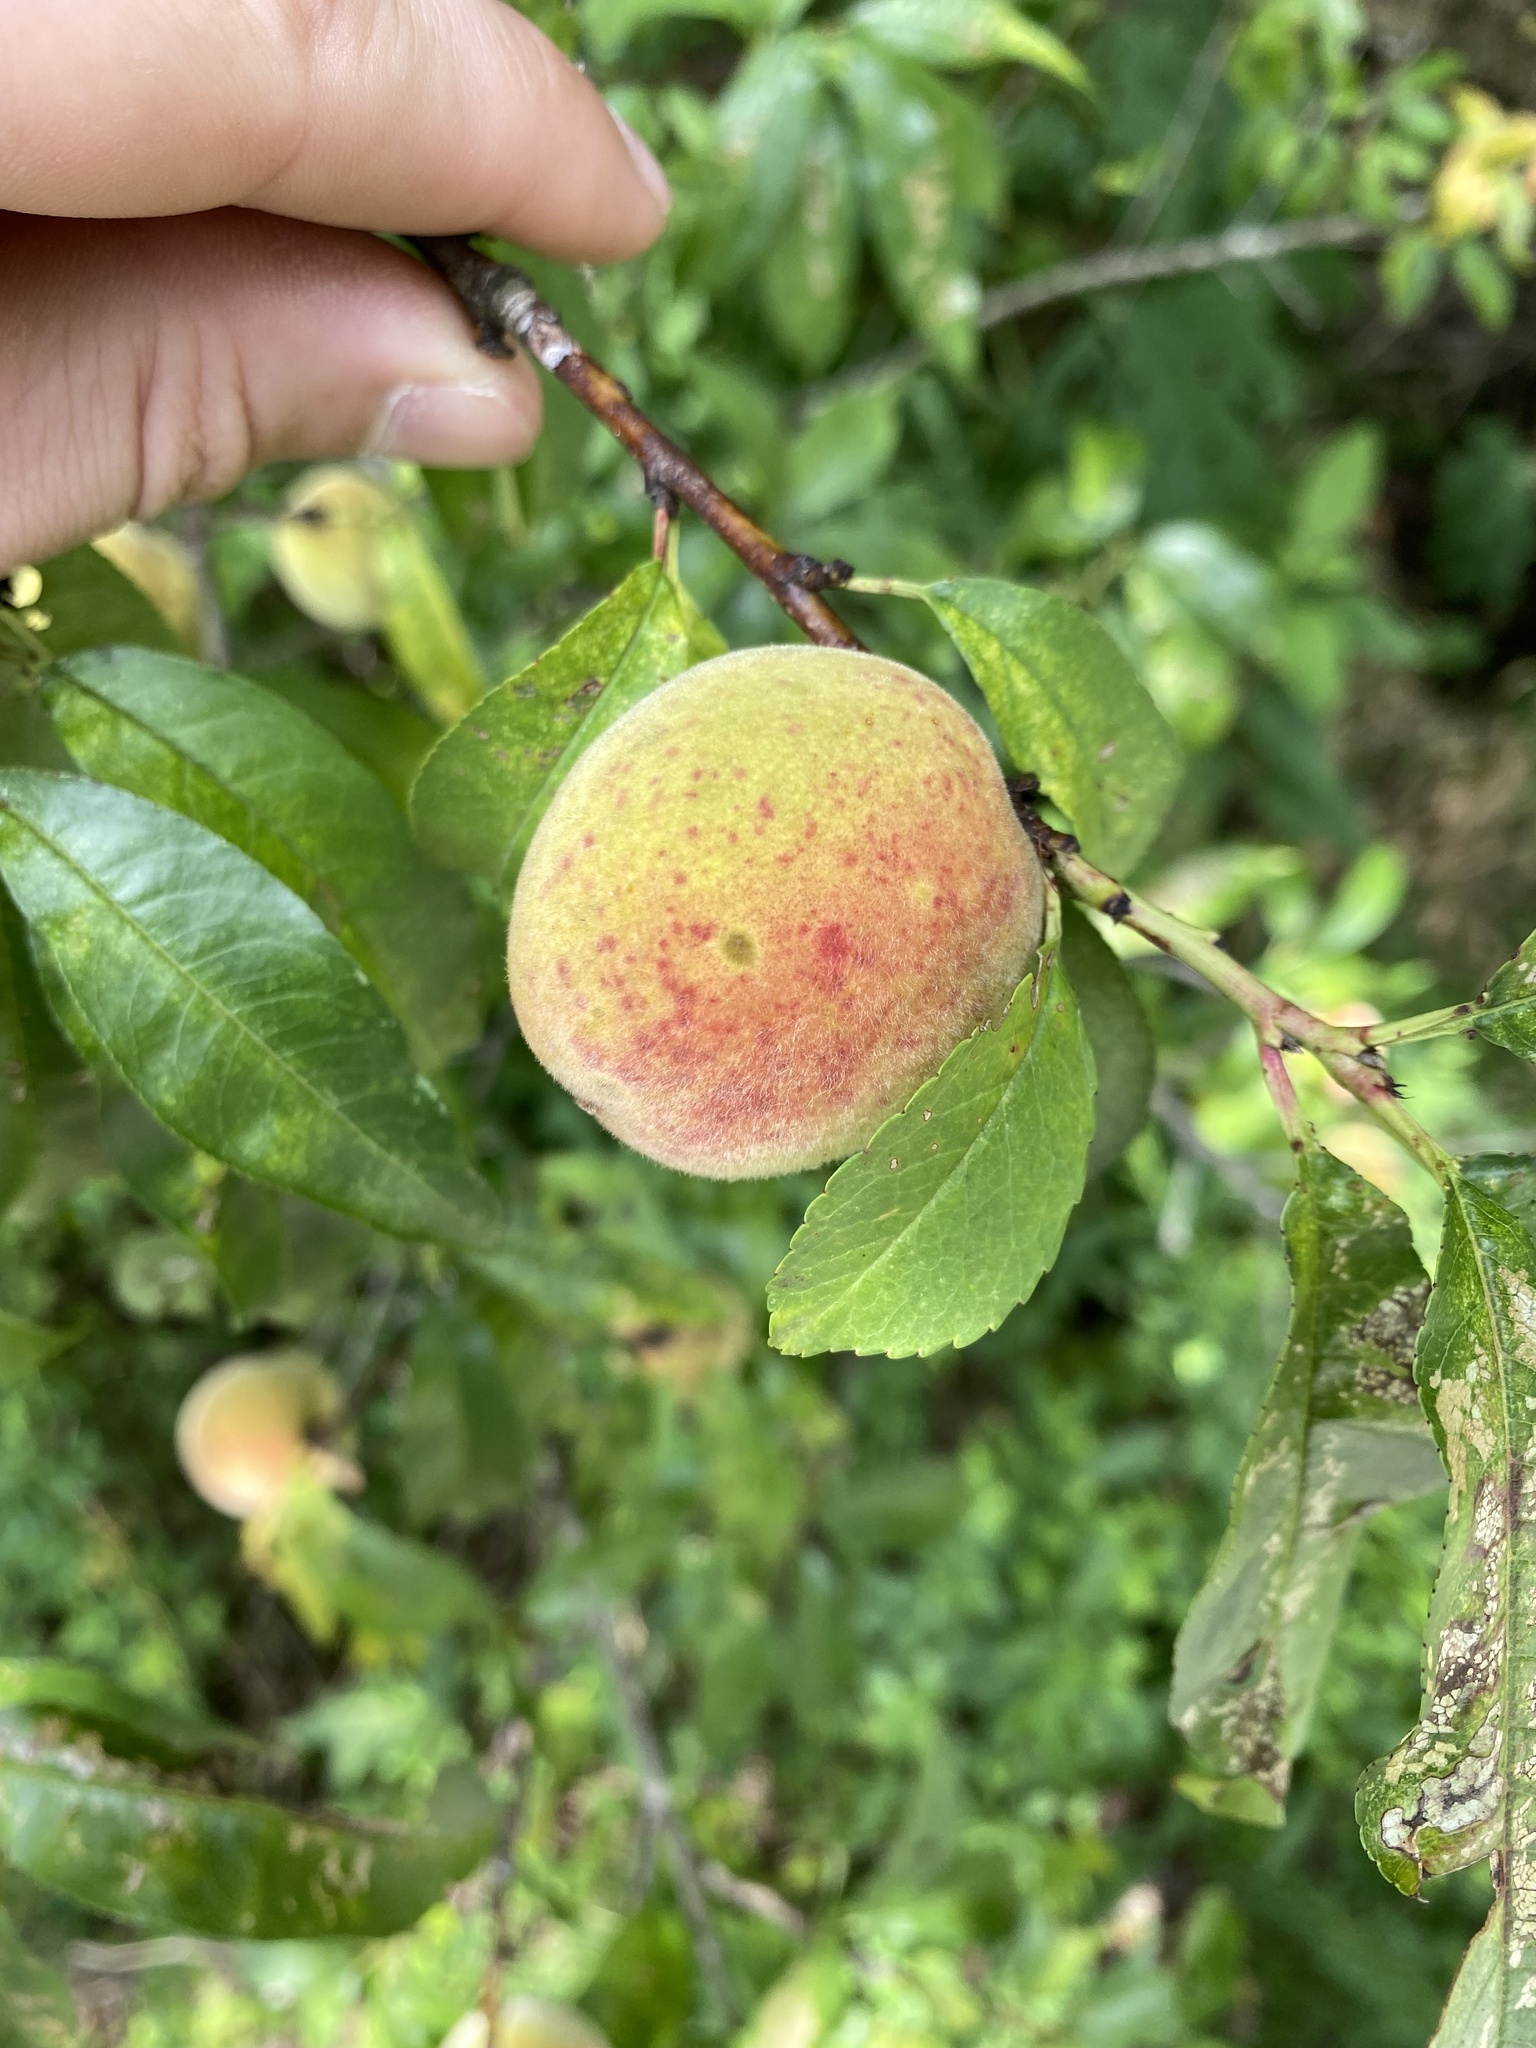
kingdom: Plantae
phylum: Tracheophyta
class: Magnoliopsida
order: Rosales
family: Rosaceae
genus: Prunus
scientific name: Prunus persica
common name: Peach
